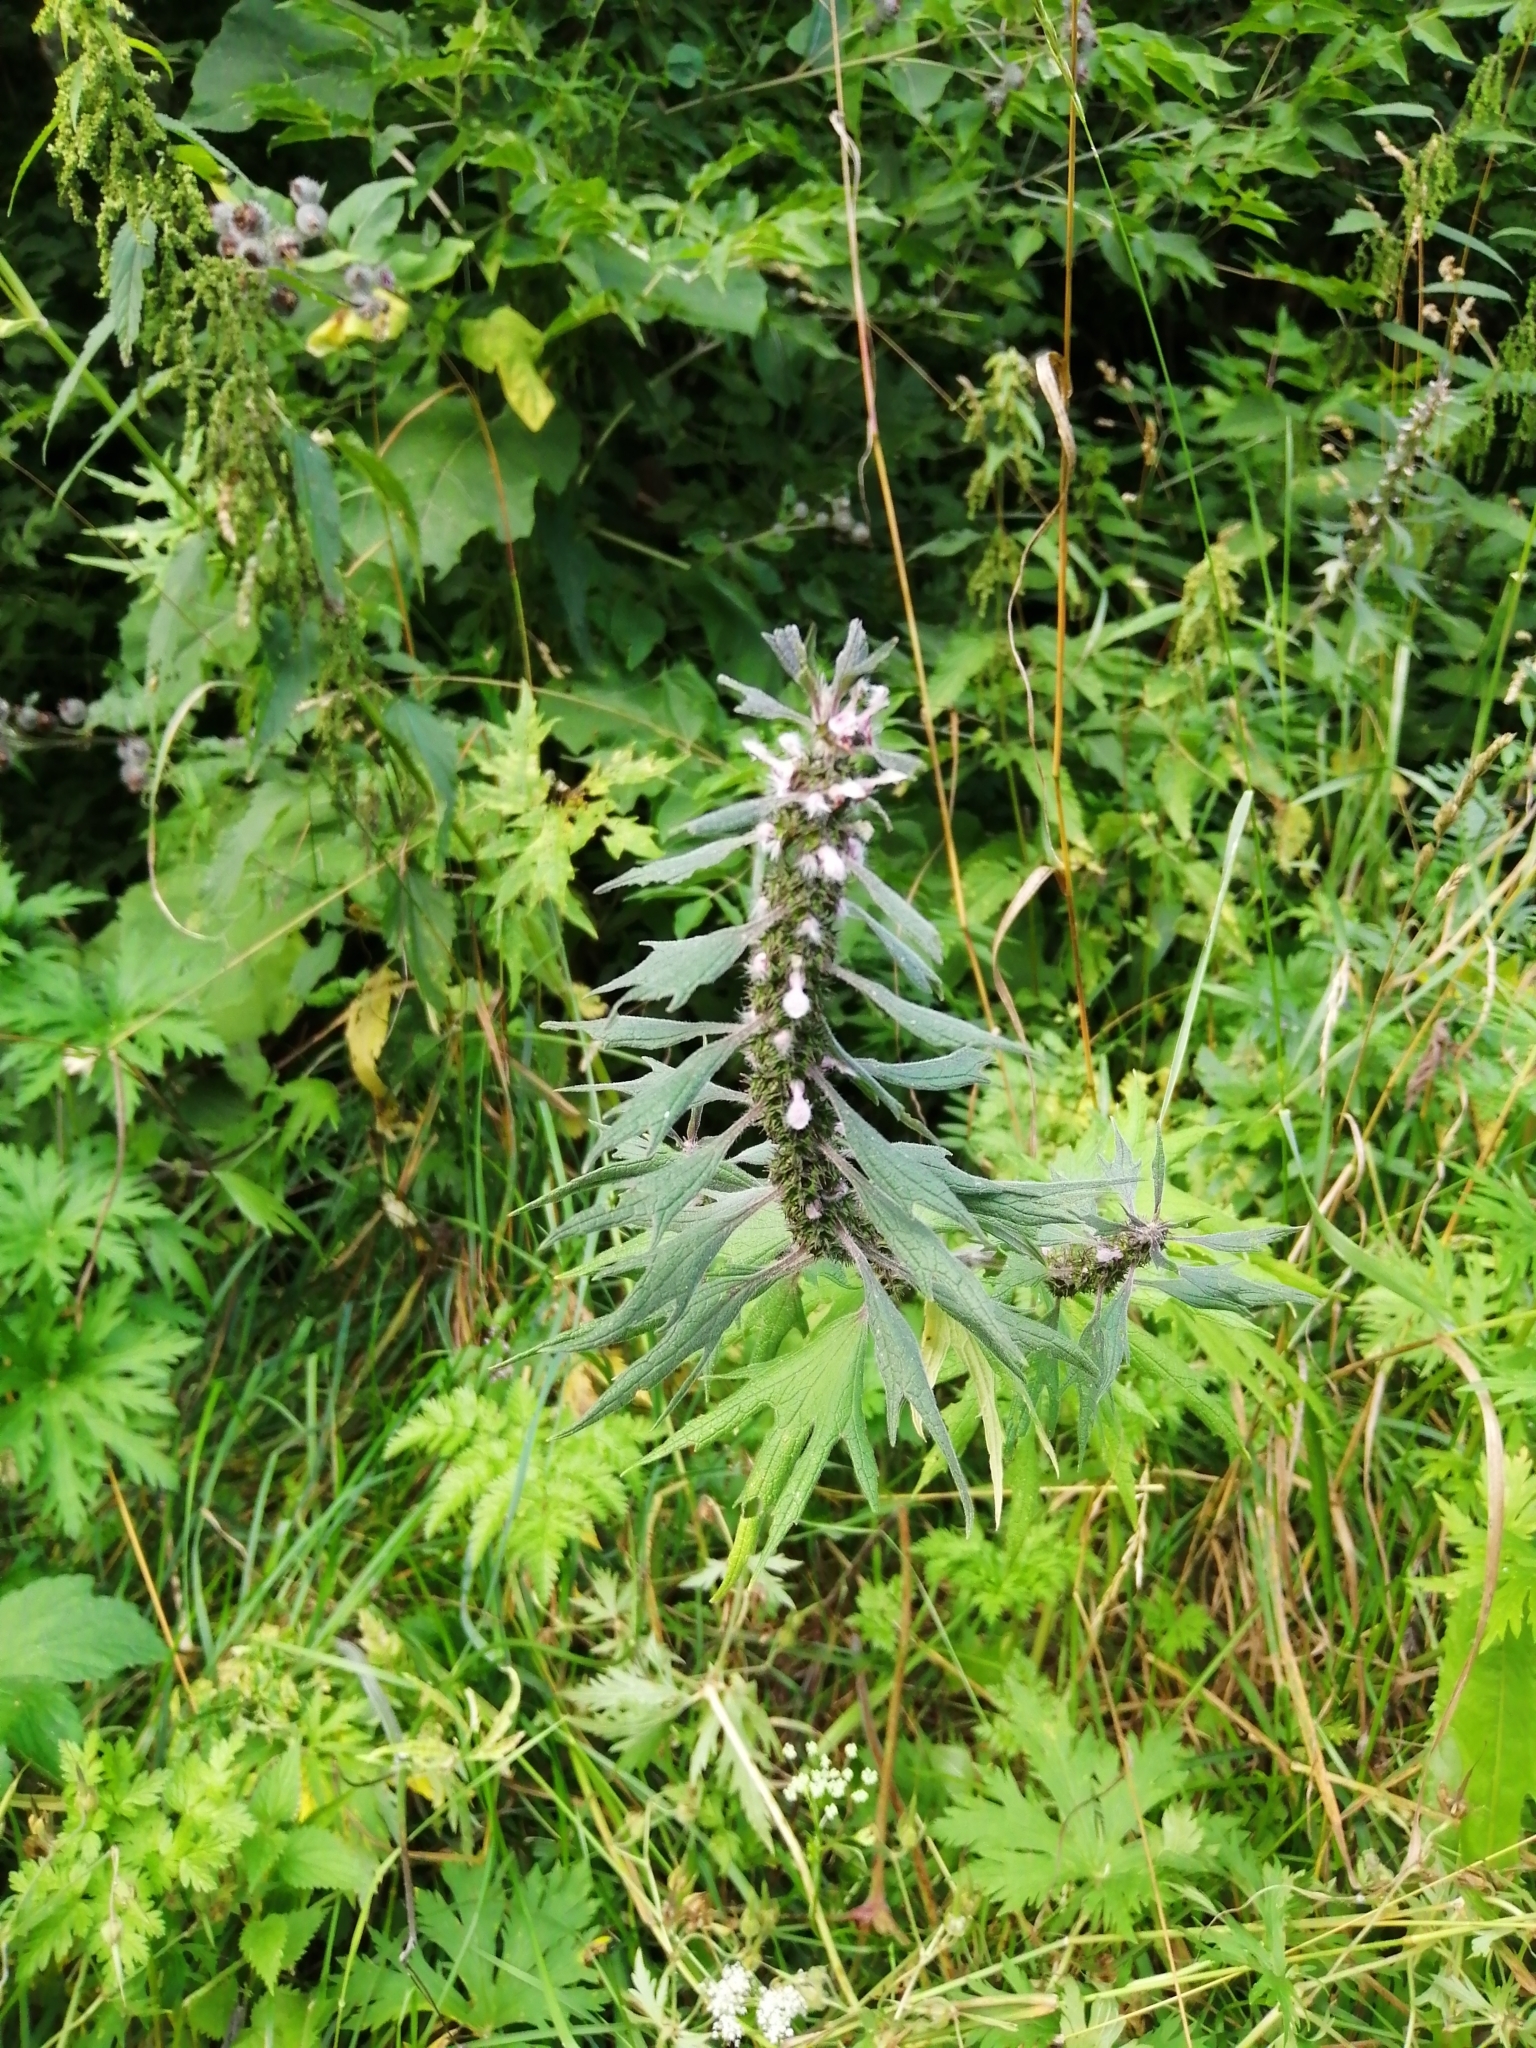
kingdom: Plantae
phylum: Tracheophyta
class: Magnoliopsida
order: Lamiales
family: Lamiaceae
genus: Leonurus
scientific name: Leonurus quinquelobatus
